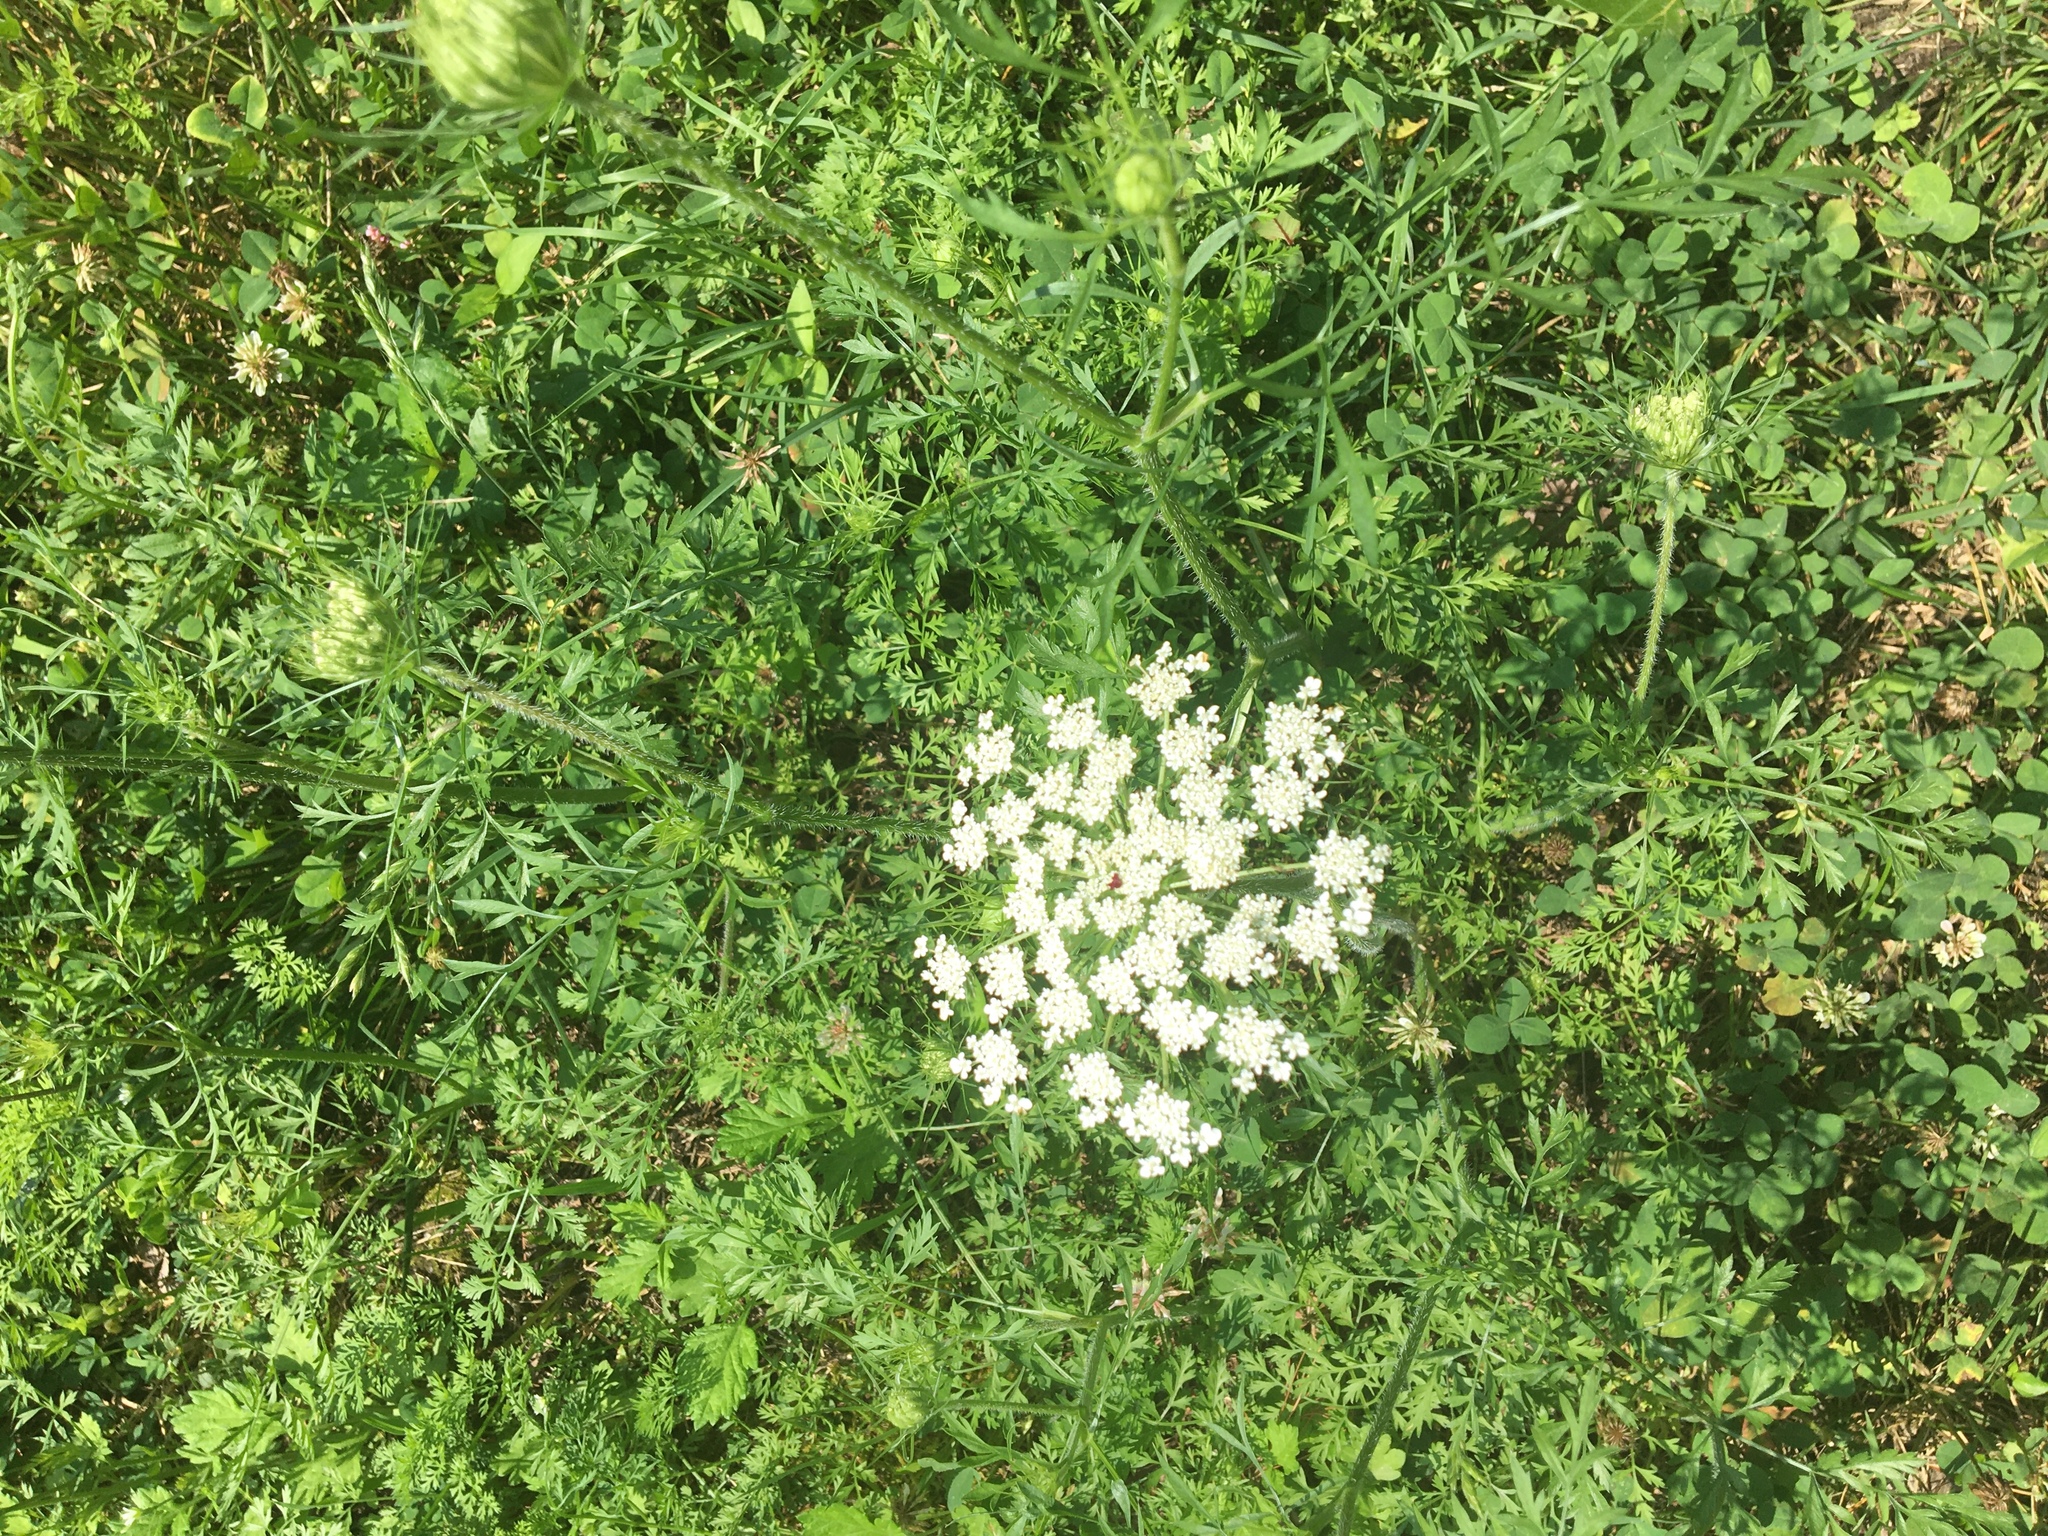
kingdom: Plantae
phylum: Tracheophyta
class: Magnoliopsida
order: Apiales
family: Apiaceae
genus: Daucus
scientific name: Daucus carota
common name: Wild carrot
